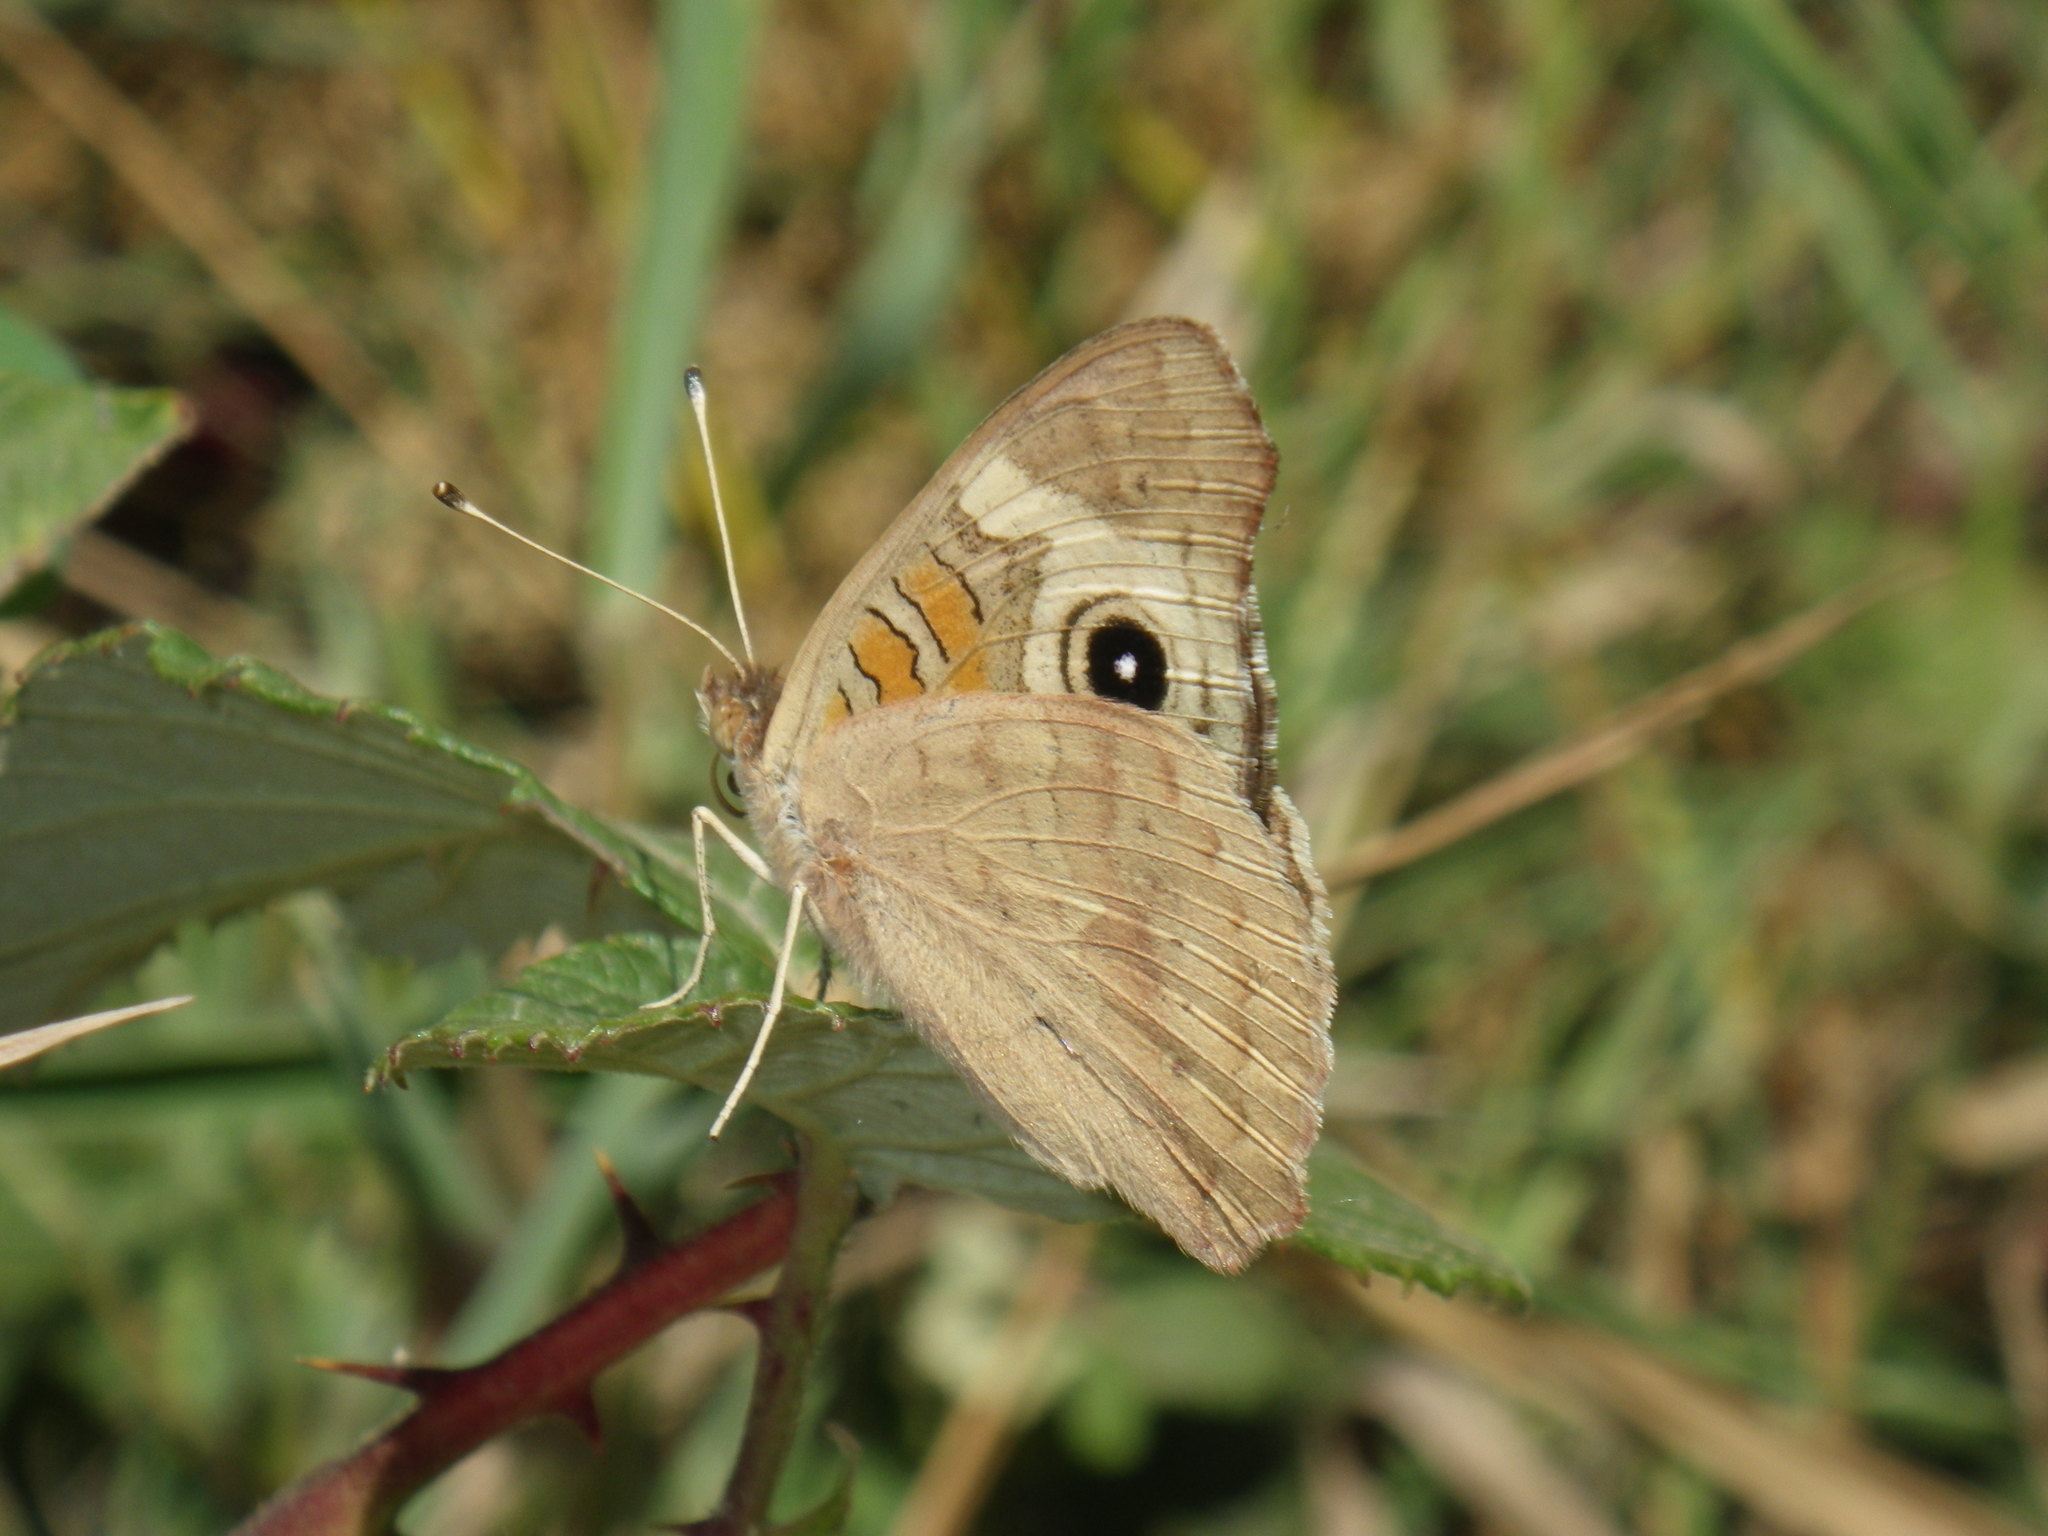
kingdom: Animalia
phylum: Arthropoda
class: Insecta
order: Lepidoptera
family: Nymphalidae
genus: Junonia
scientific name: Junonia grisea
